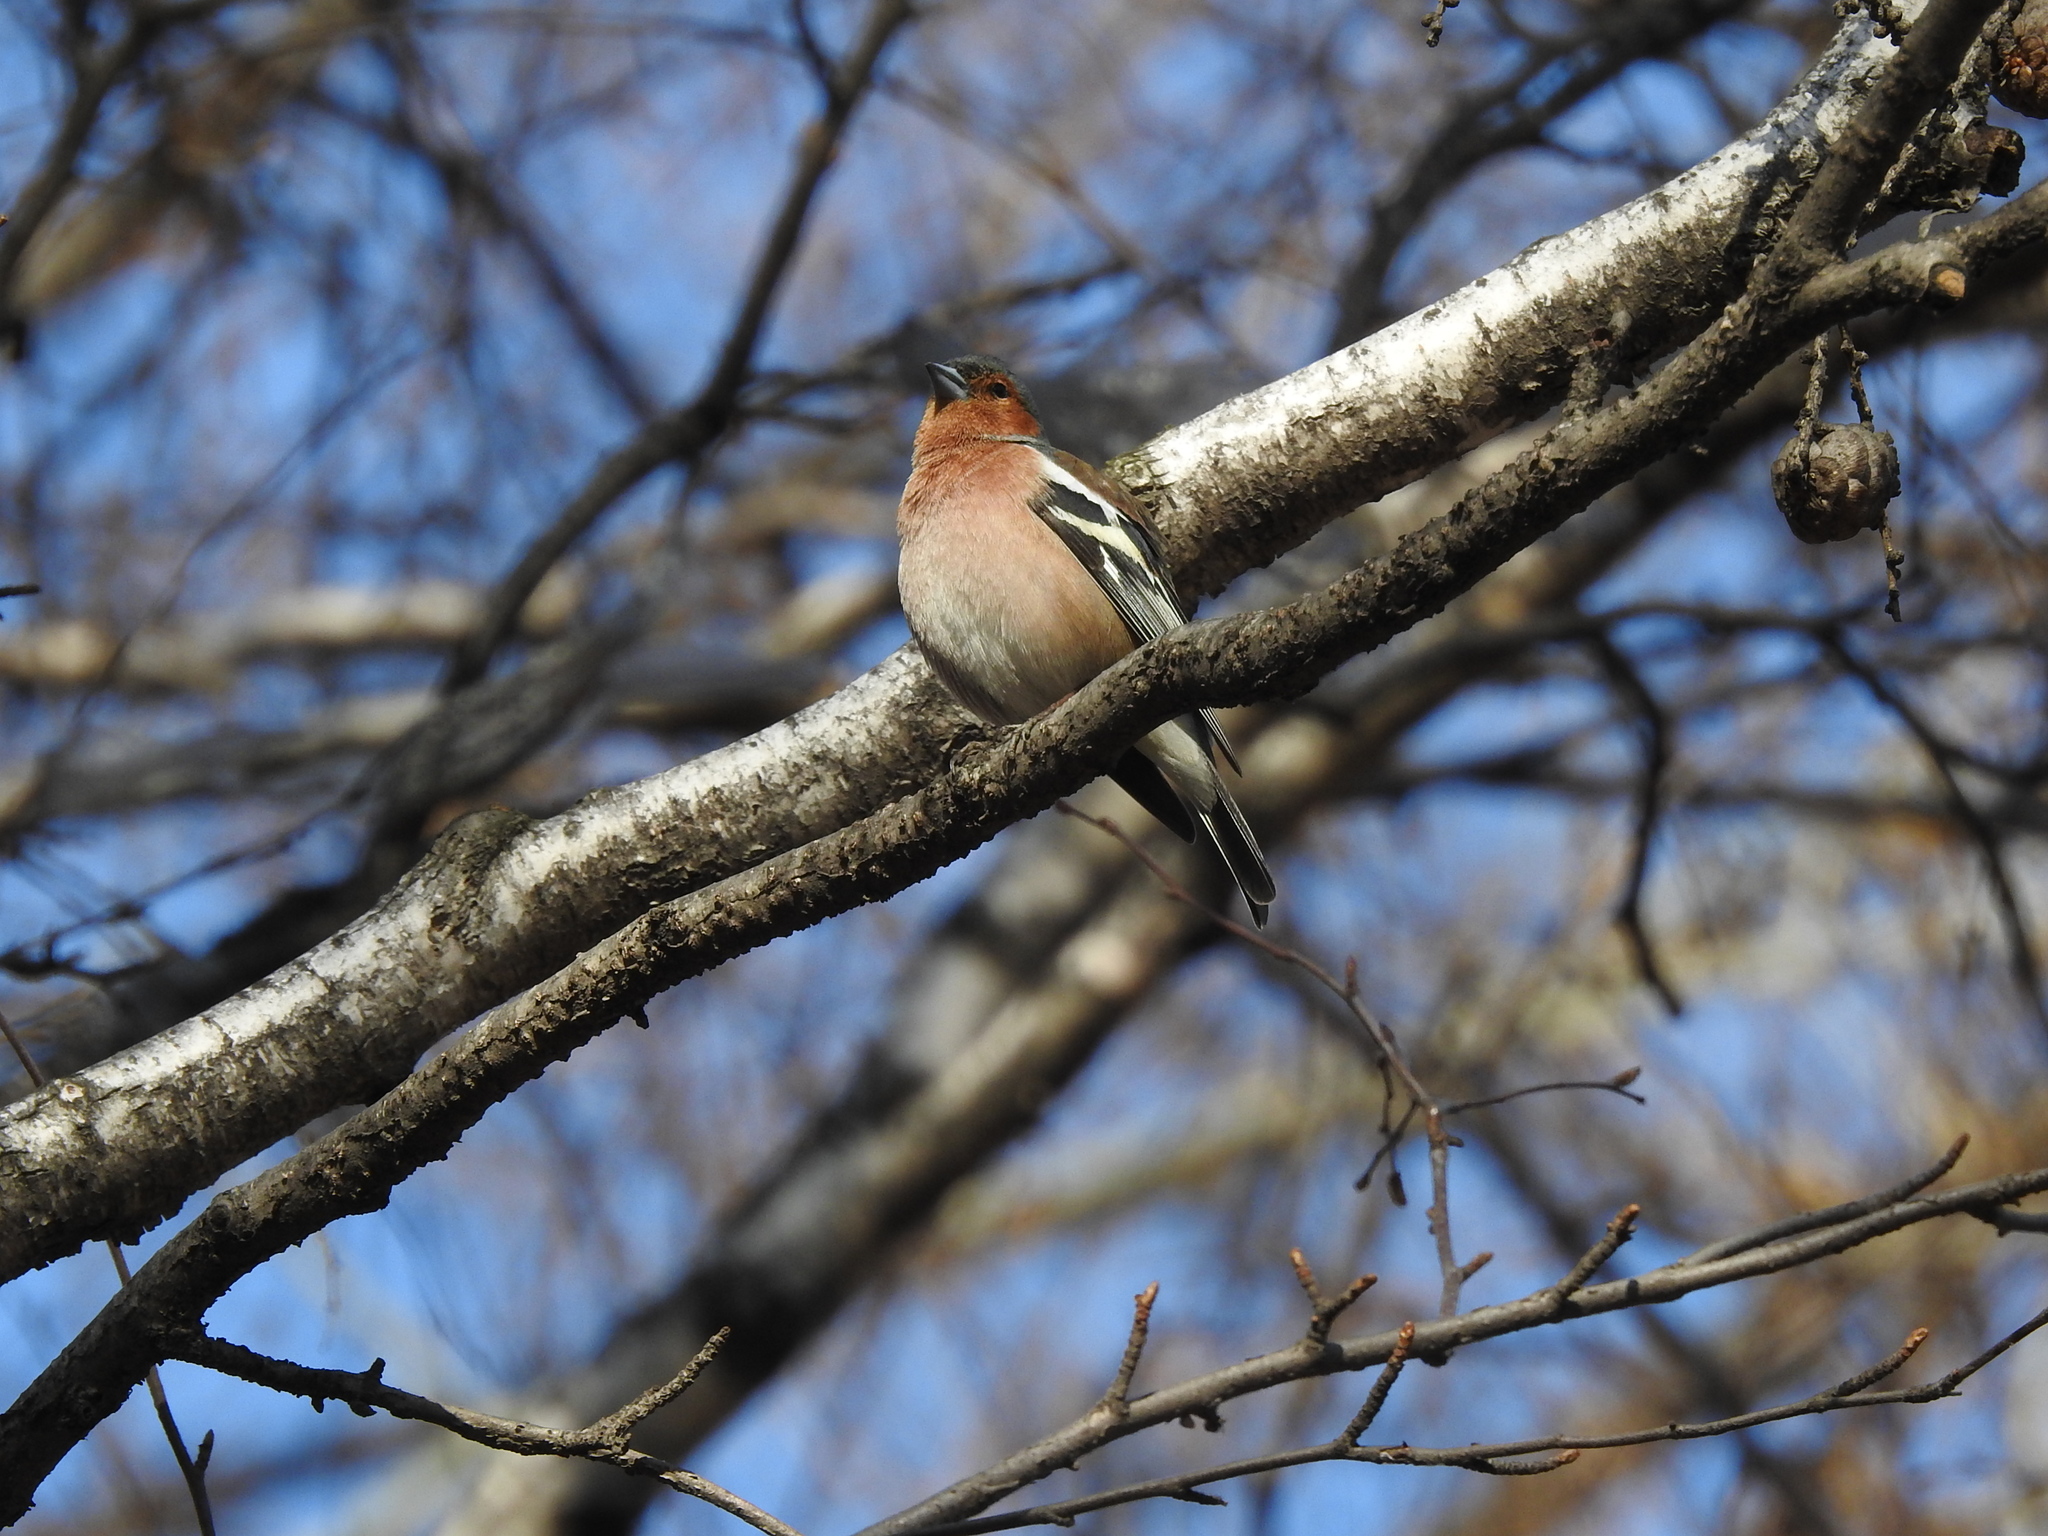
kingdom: Animalia
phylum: Chordata
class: Aves
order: Passeriformes
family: Fringillidae
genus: Fringilla
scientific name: Fringilla coelebs
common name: Common chaffinch
